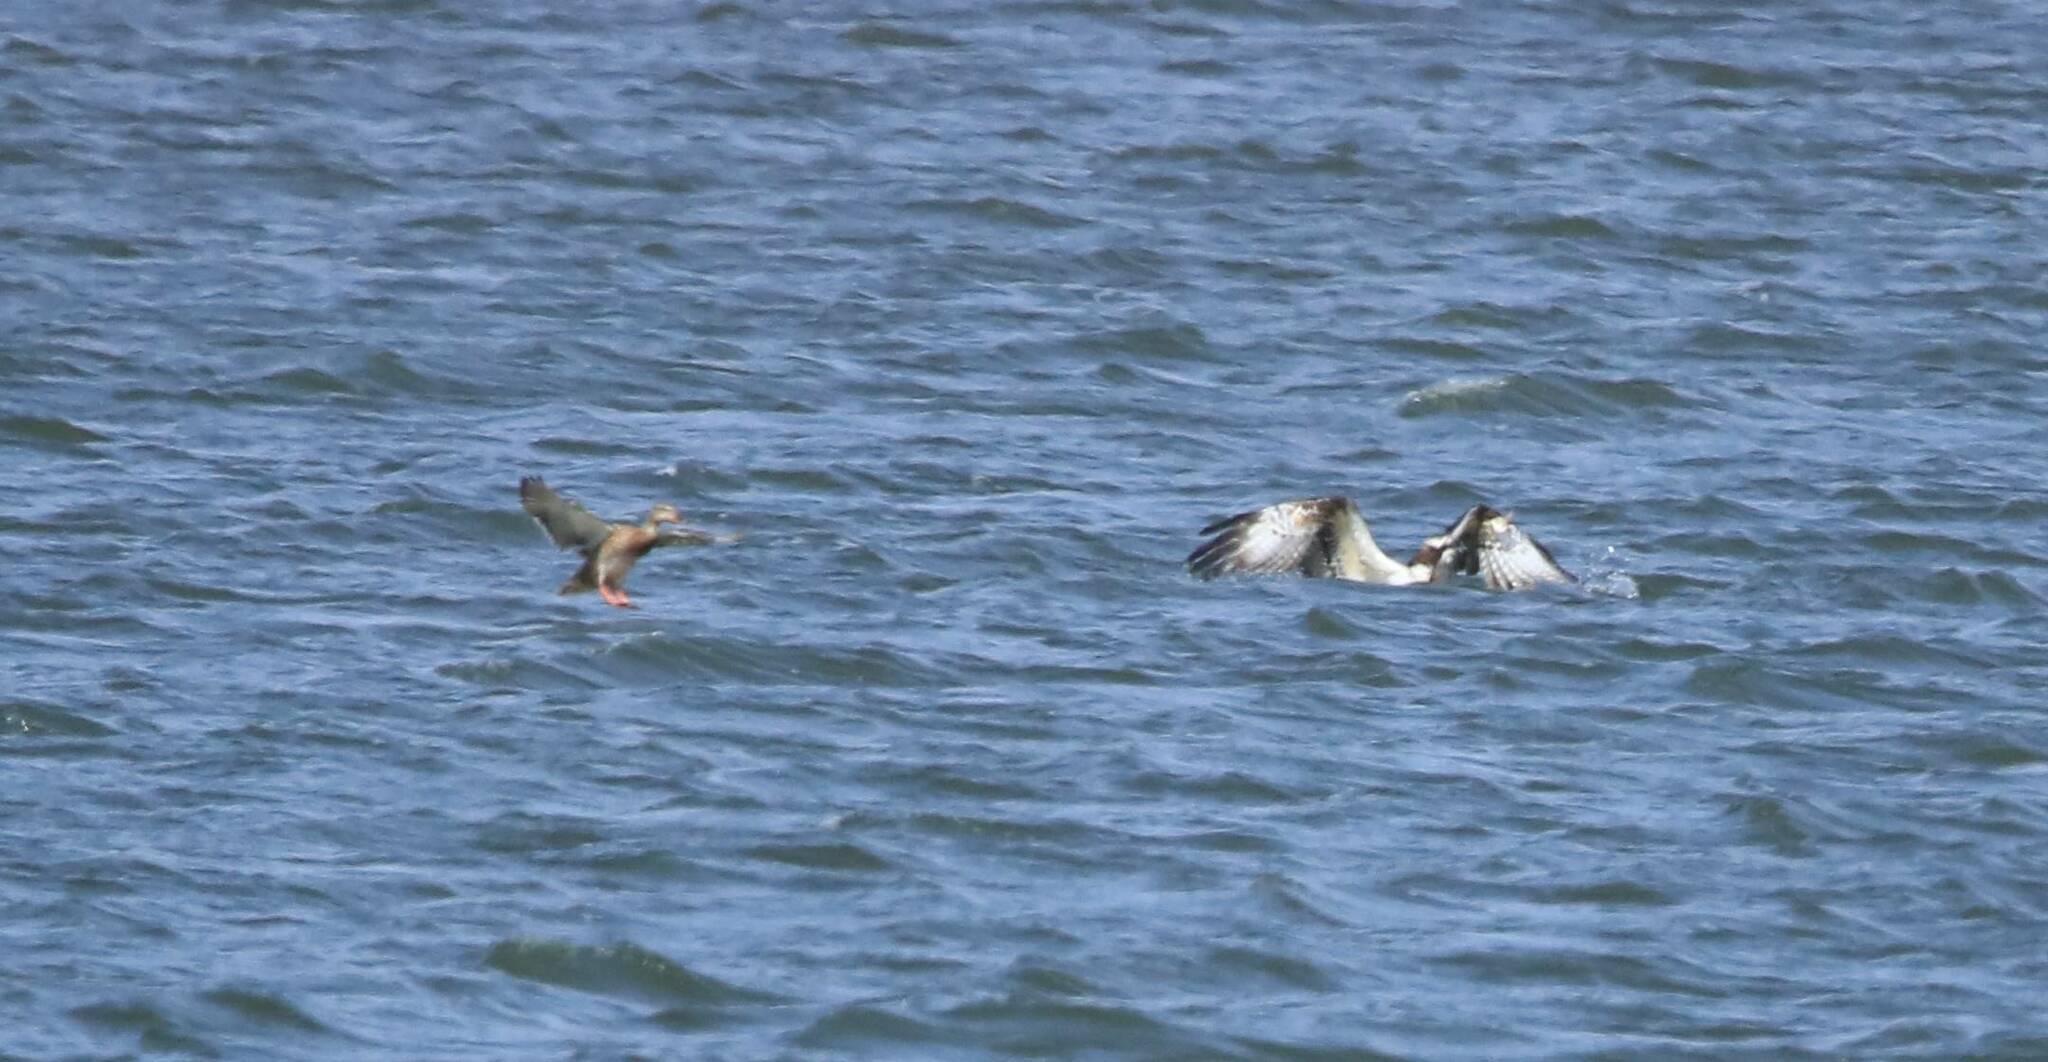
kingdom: Animalia
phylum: Chordata
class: Aves
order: Accipitriformes
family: Pandionidae
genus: Pandion
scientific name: Pandion haliaetus
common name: Osprey
